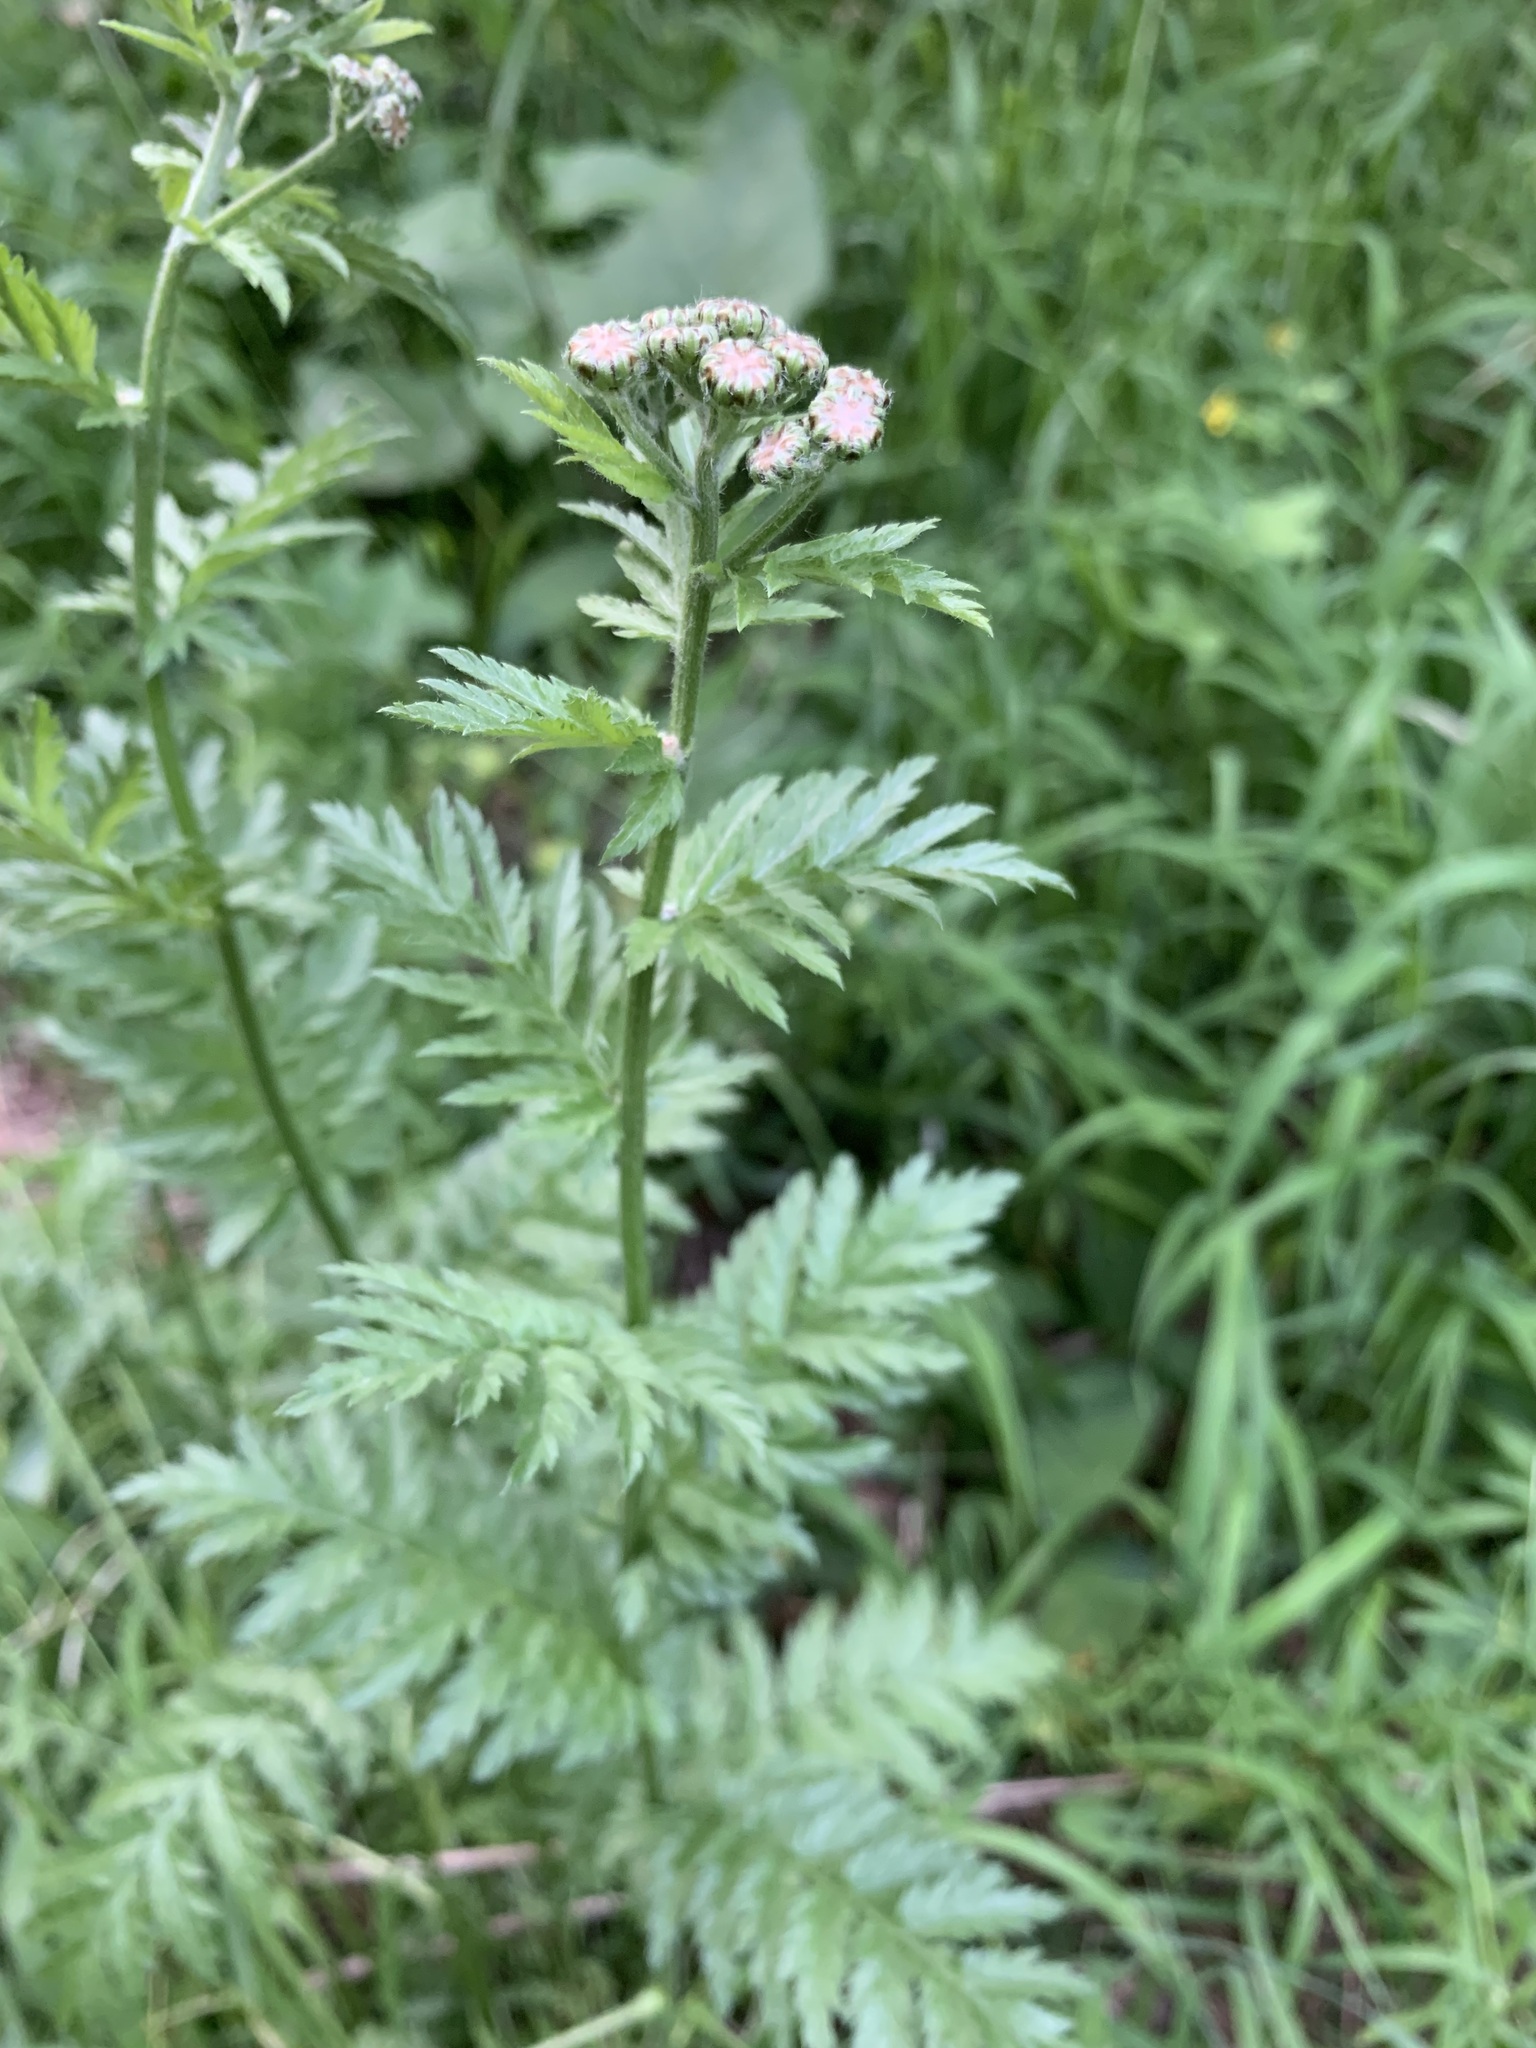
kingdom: Plantae
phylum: Tracheophyta
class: Magnoliopsida
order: Asterales
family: Asteraceae
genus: Tanacetum
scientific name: Tanacetum corymbosum
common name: Scentless feverfew
